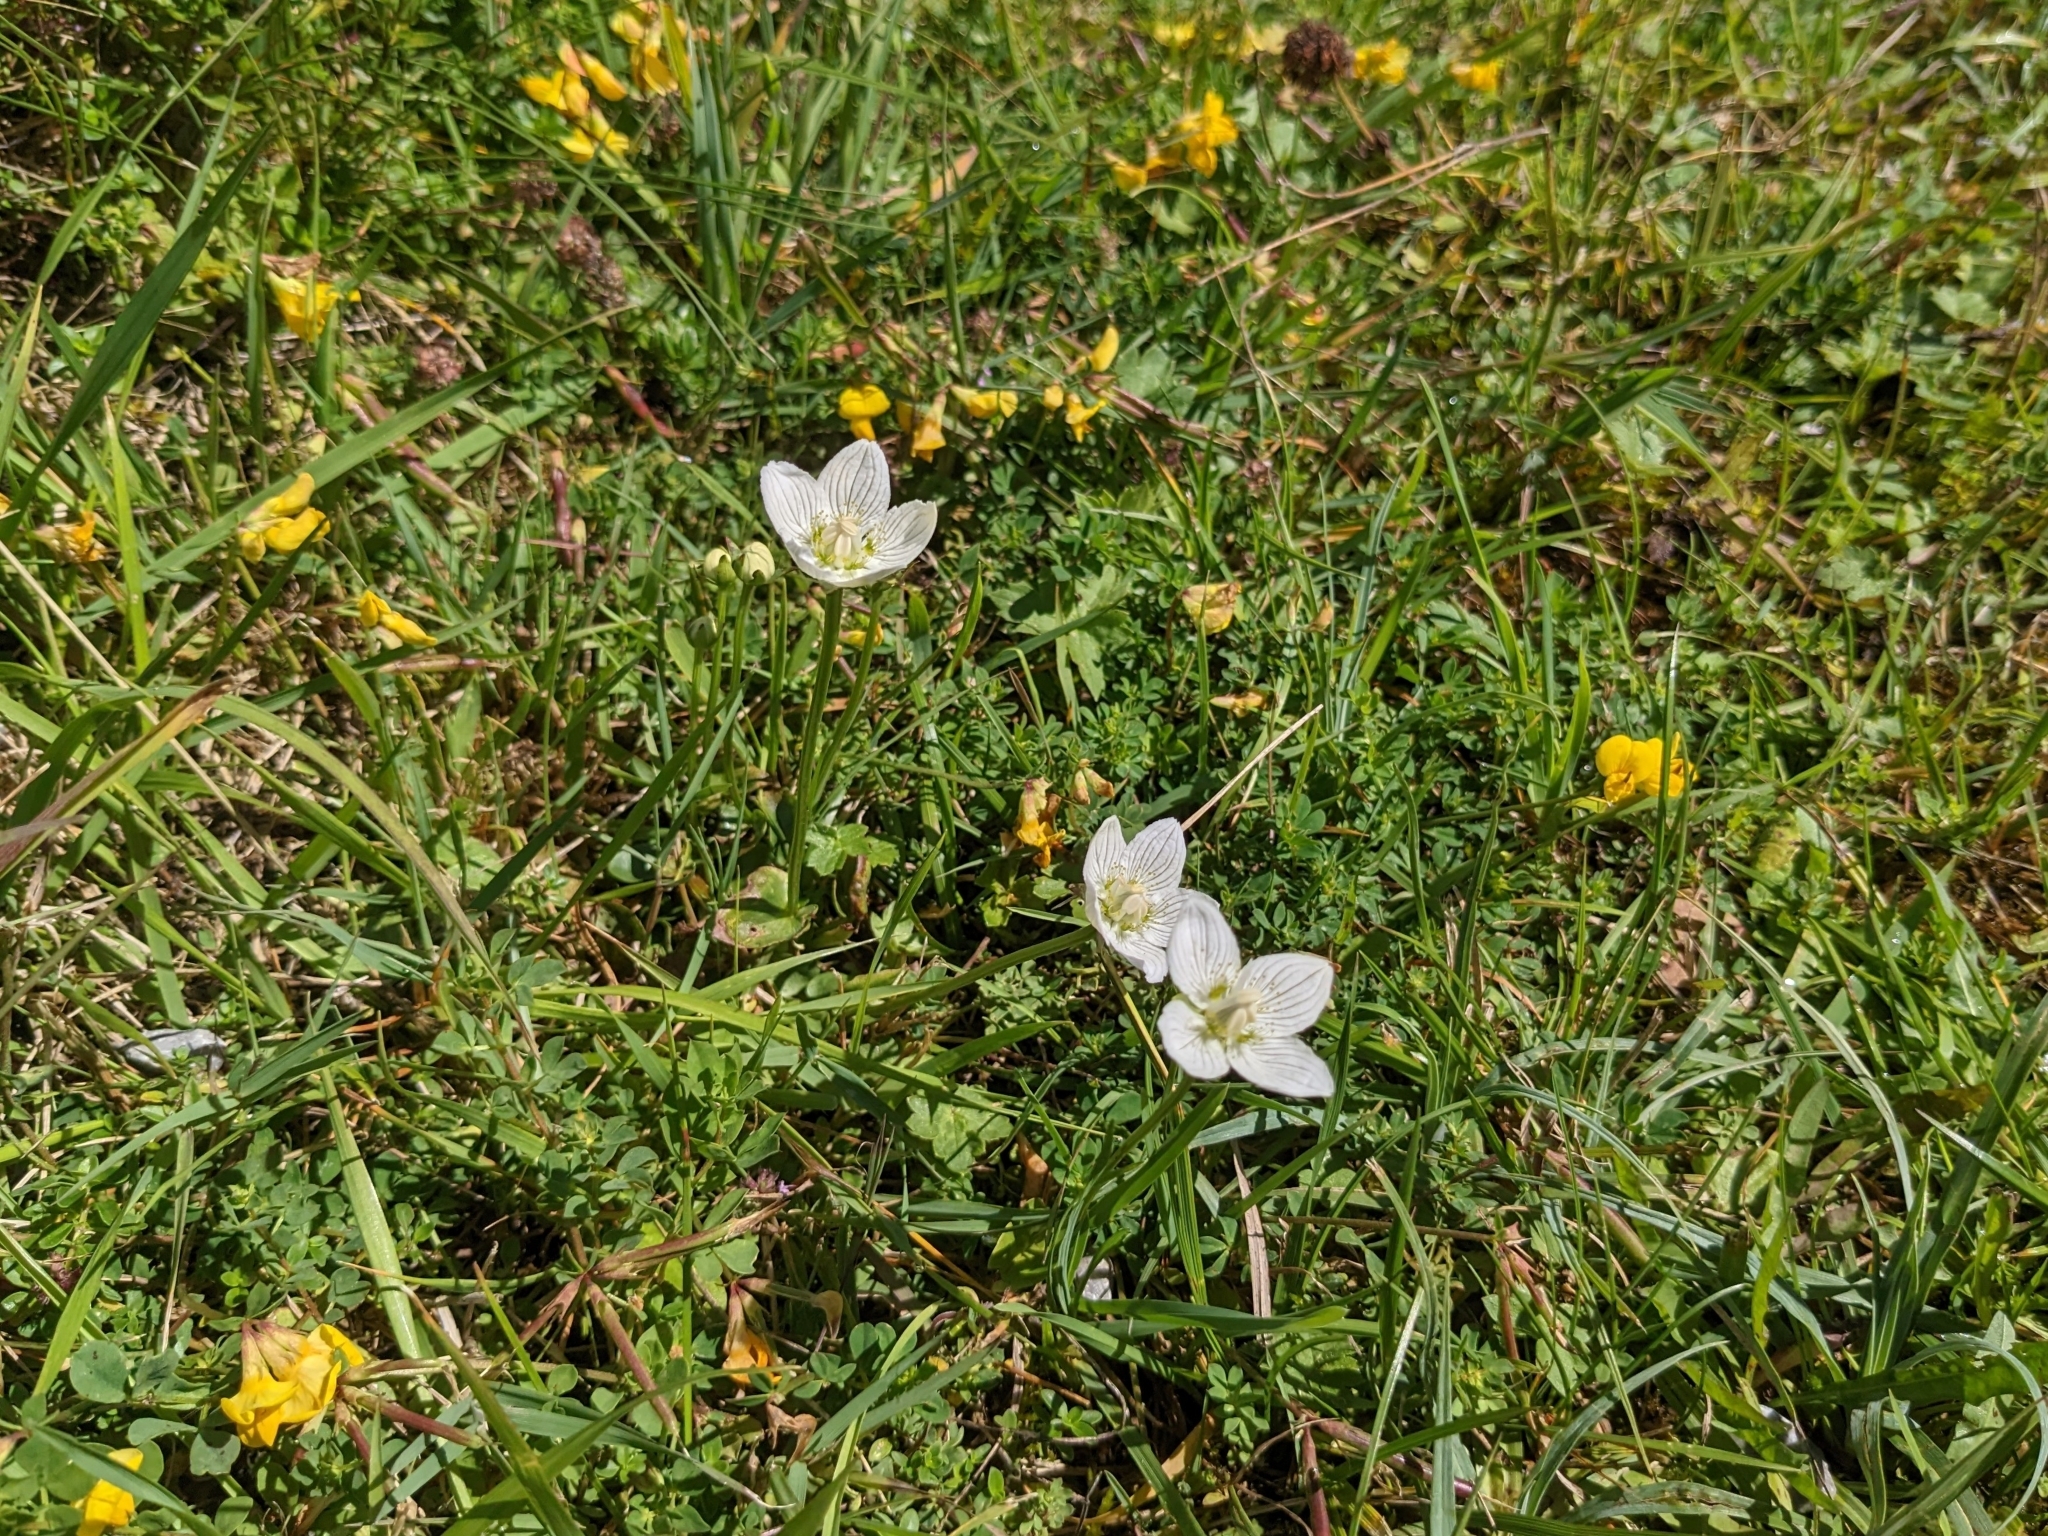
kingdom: Plantae
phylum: Tracheophyta
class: Magnoliopsida
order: Celastrales
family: Parnassiaceae
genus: Parnassia
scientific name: Parnassia palustris
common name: Grass-of-parnassus
